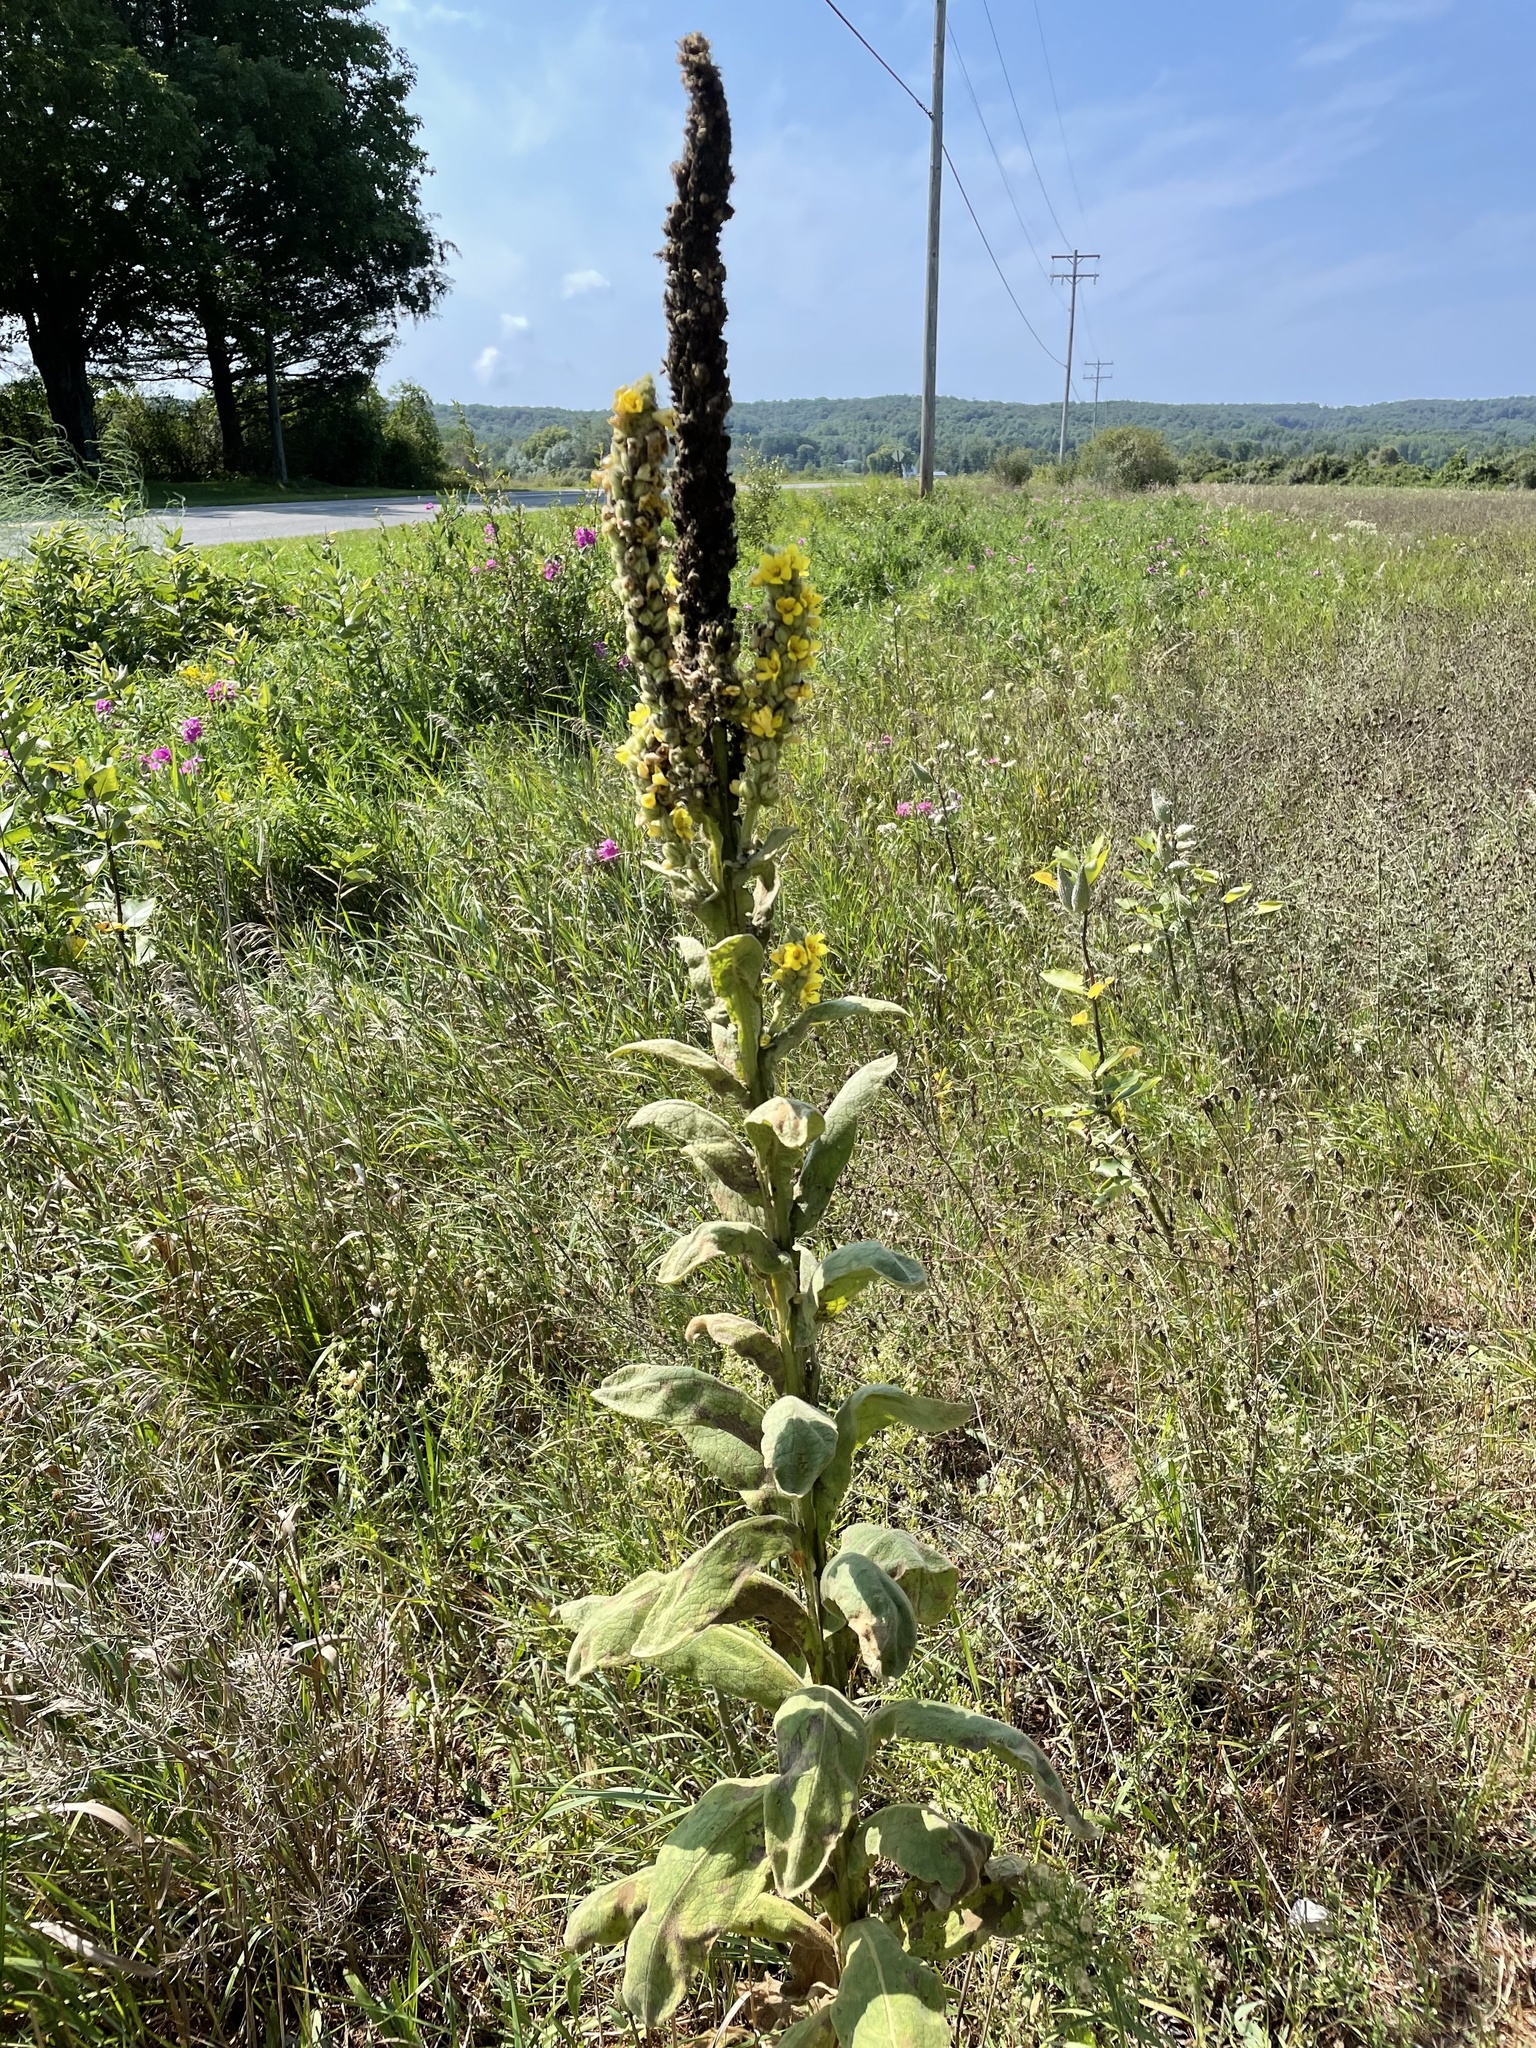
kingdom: Plantae
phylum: Tracheophyta
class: Magnoliopsida
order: Lamiales
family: Scrophulariaceae
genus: Verbascum
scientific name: Verbascum thapsus
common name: Common mullein
